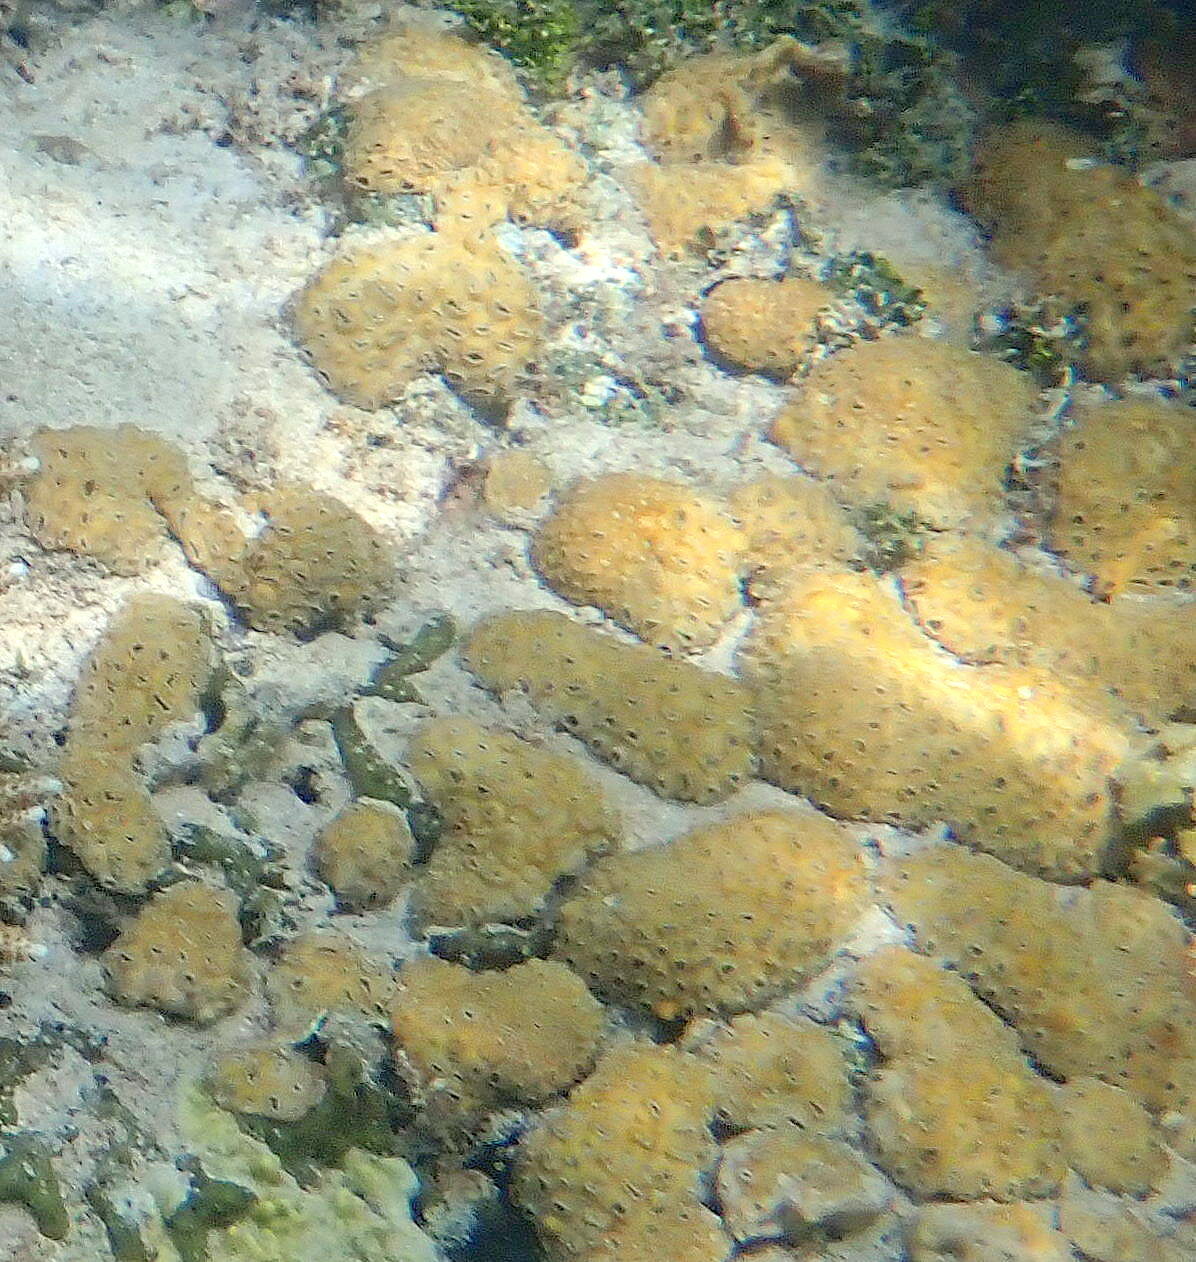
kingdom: Animalia
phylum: Cnidaria
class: Anthozoa
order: Zoantharia
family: Sphenopidae
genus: Palythoa
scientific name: Palythoa tuberculosa
